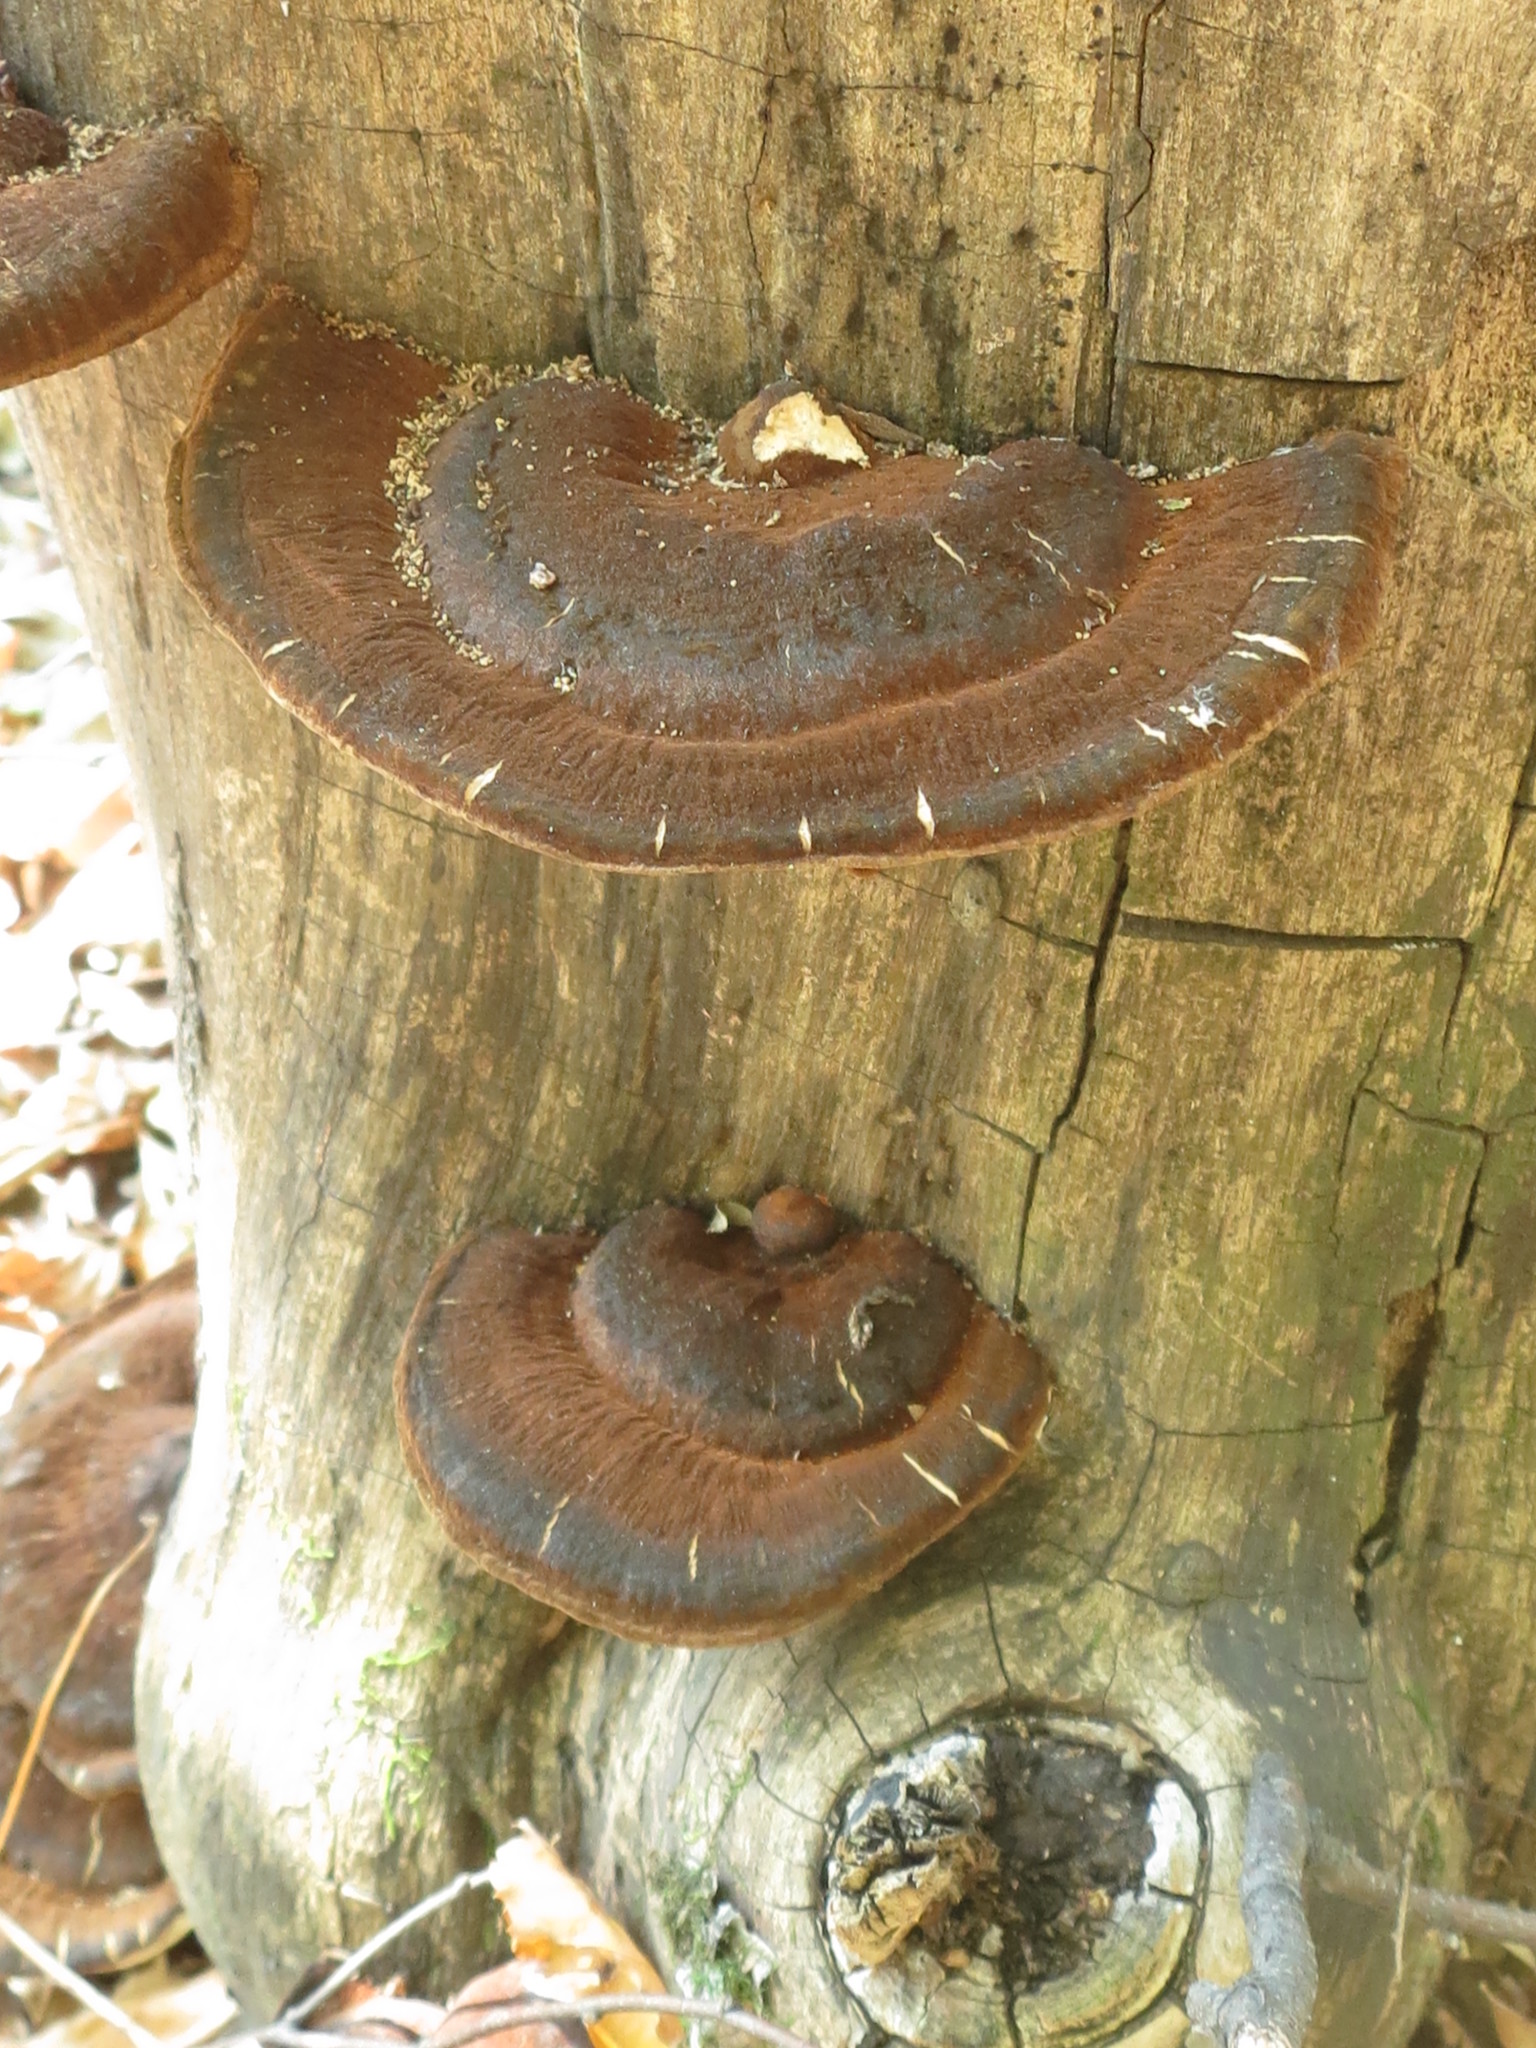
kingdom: Fungi
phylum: Basidiomycota
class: Agaricomycetes
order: Polyporales
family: Ischnodermataceae
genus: Ischnoderma
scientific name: Ischnoderma benzoinum
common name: Benzoin bracket
